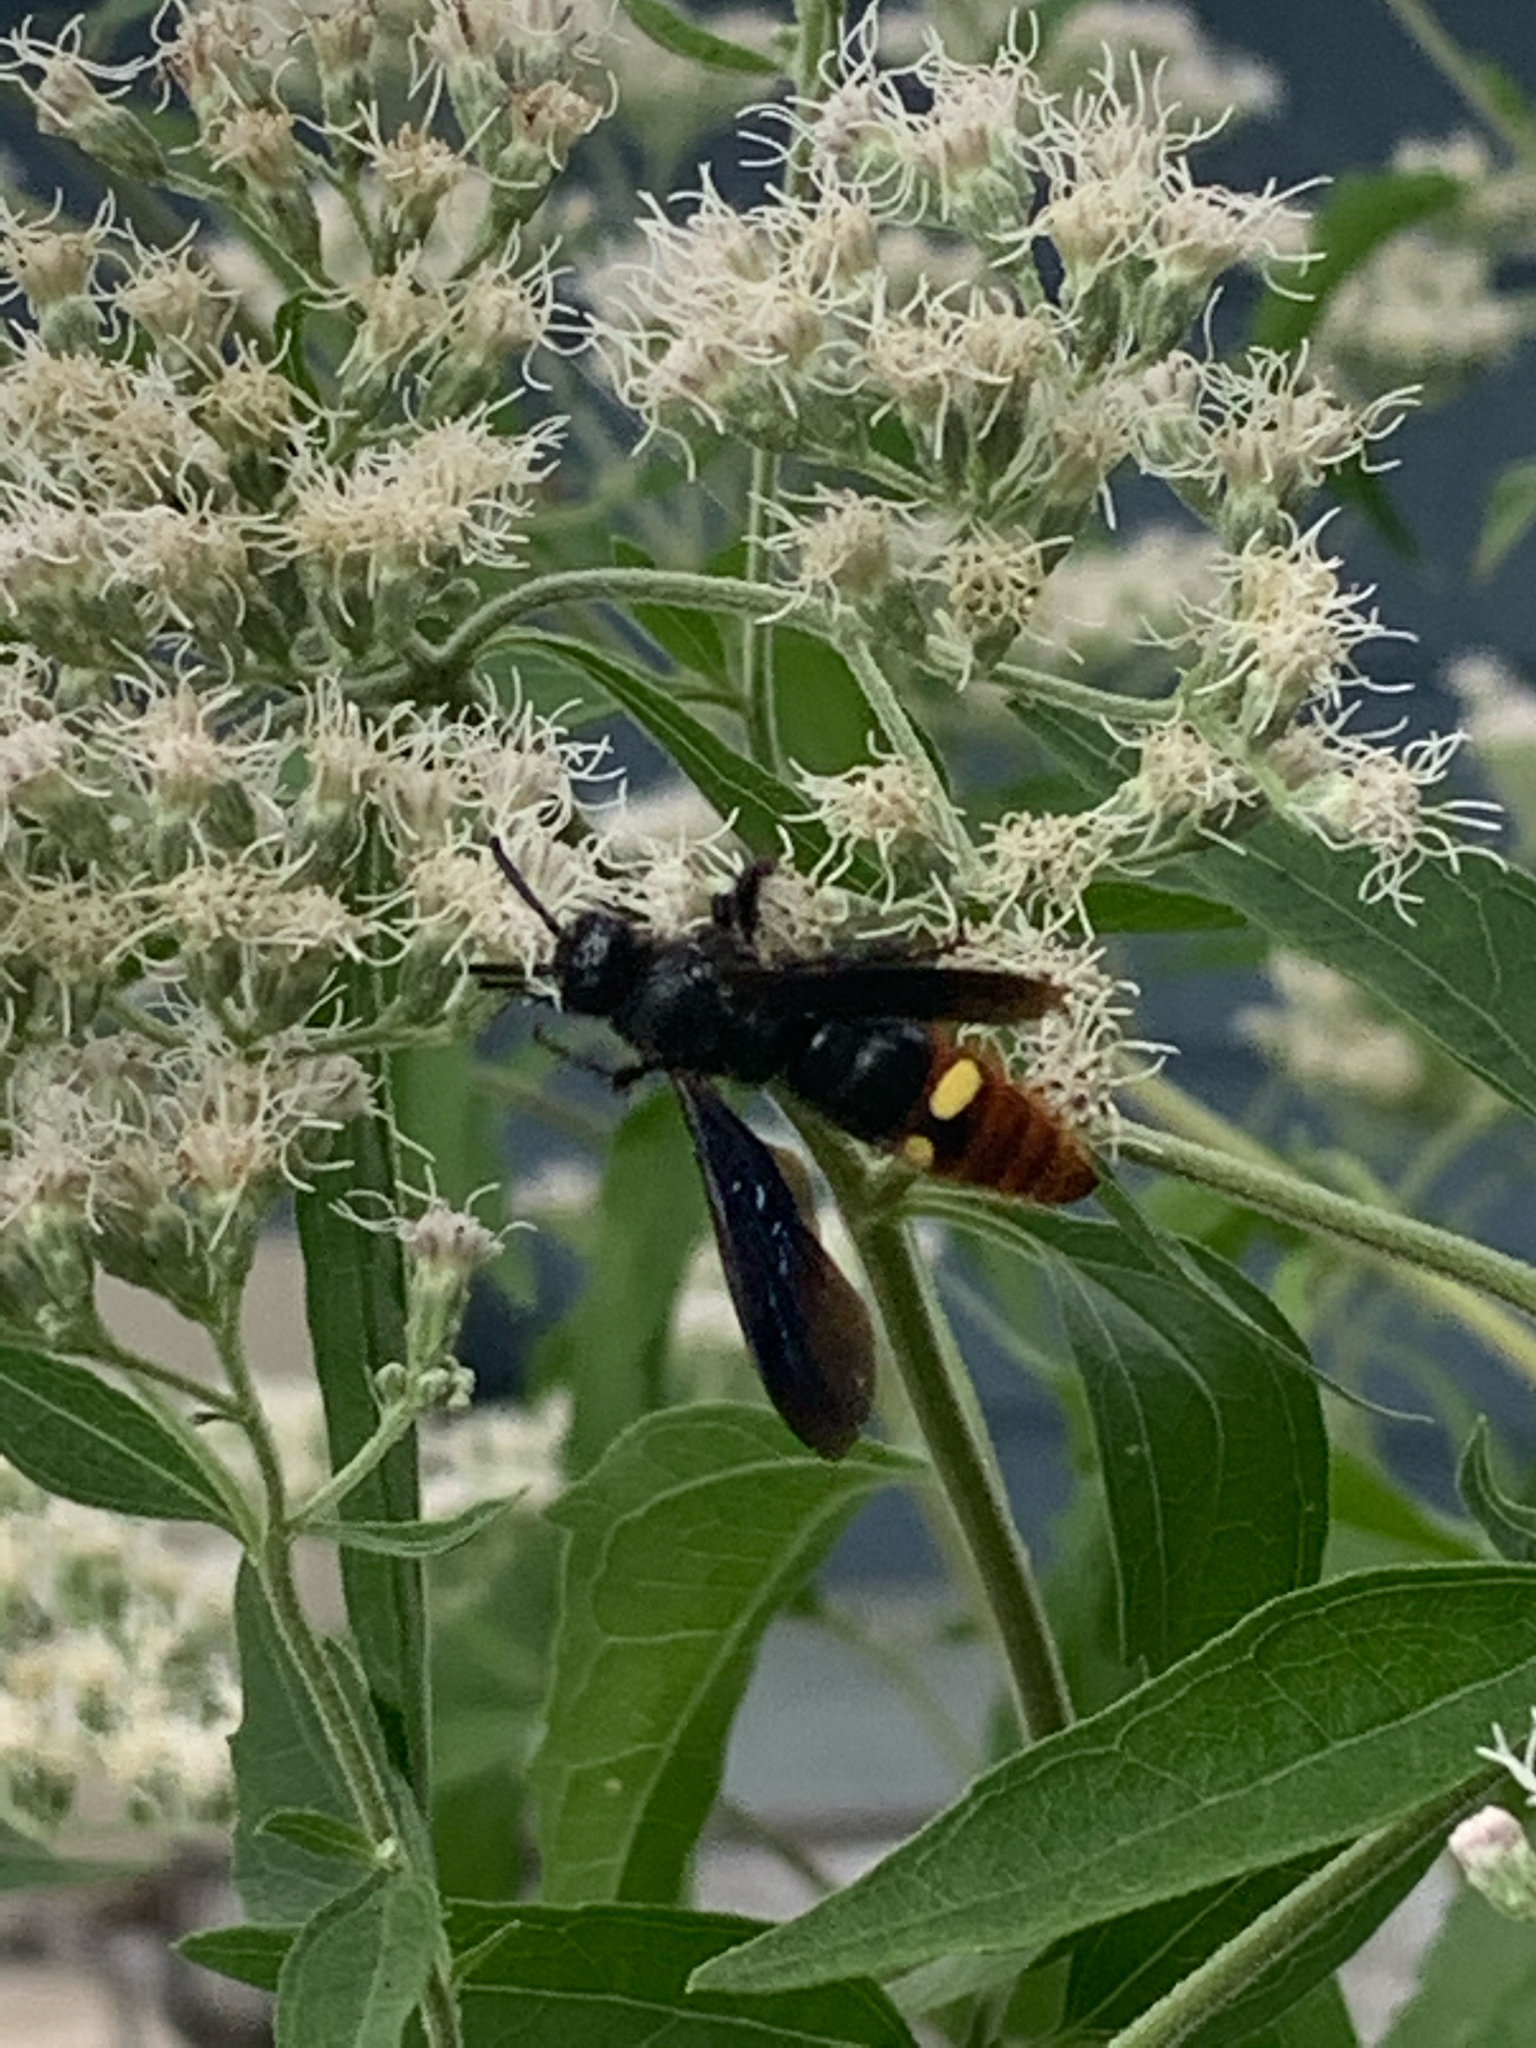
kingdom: Animalia
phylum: Arthropoda
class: Insecta
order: Hymenoptera
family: Scoliidae
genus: Scolia
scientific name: Scolia dubia
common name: Blue-winged scoliid wasp
